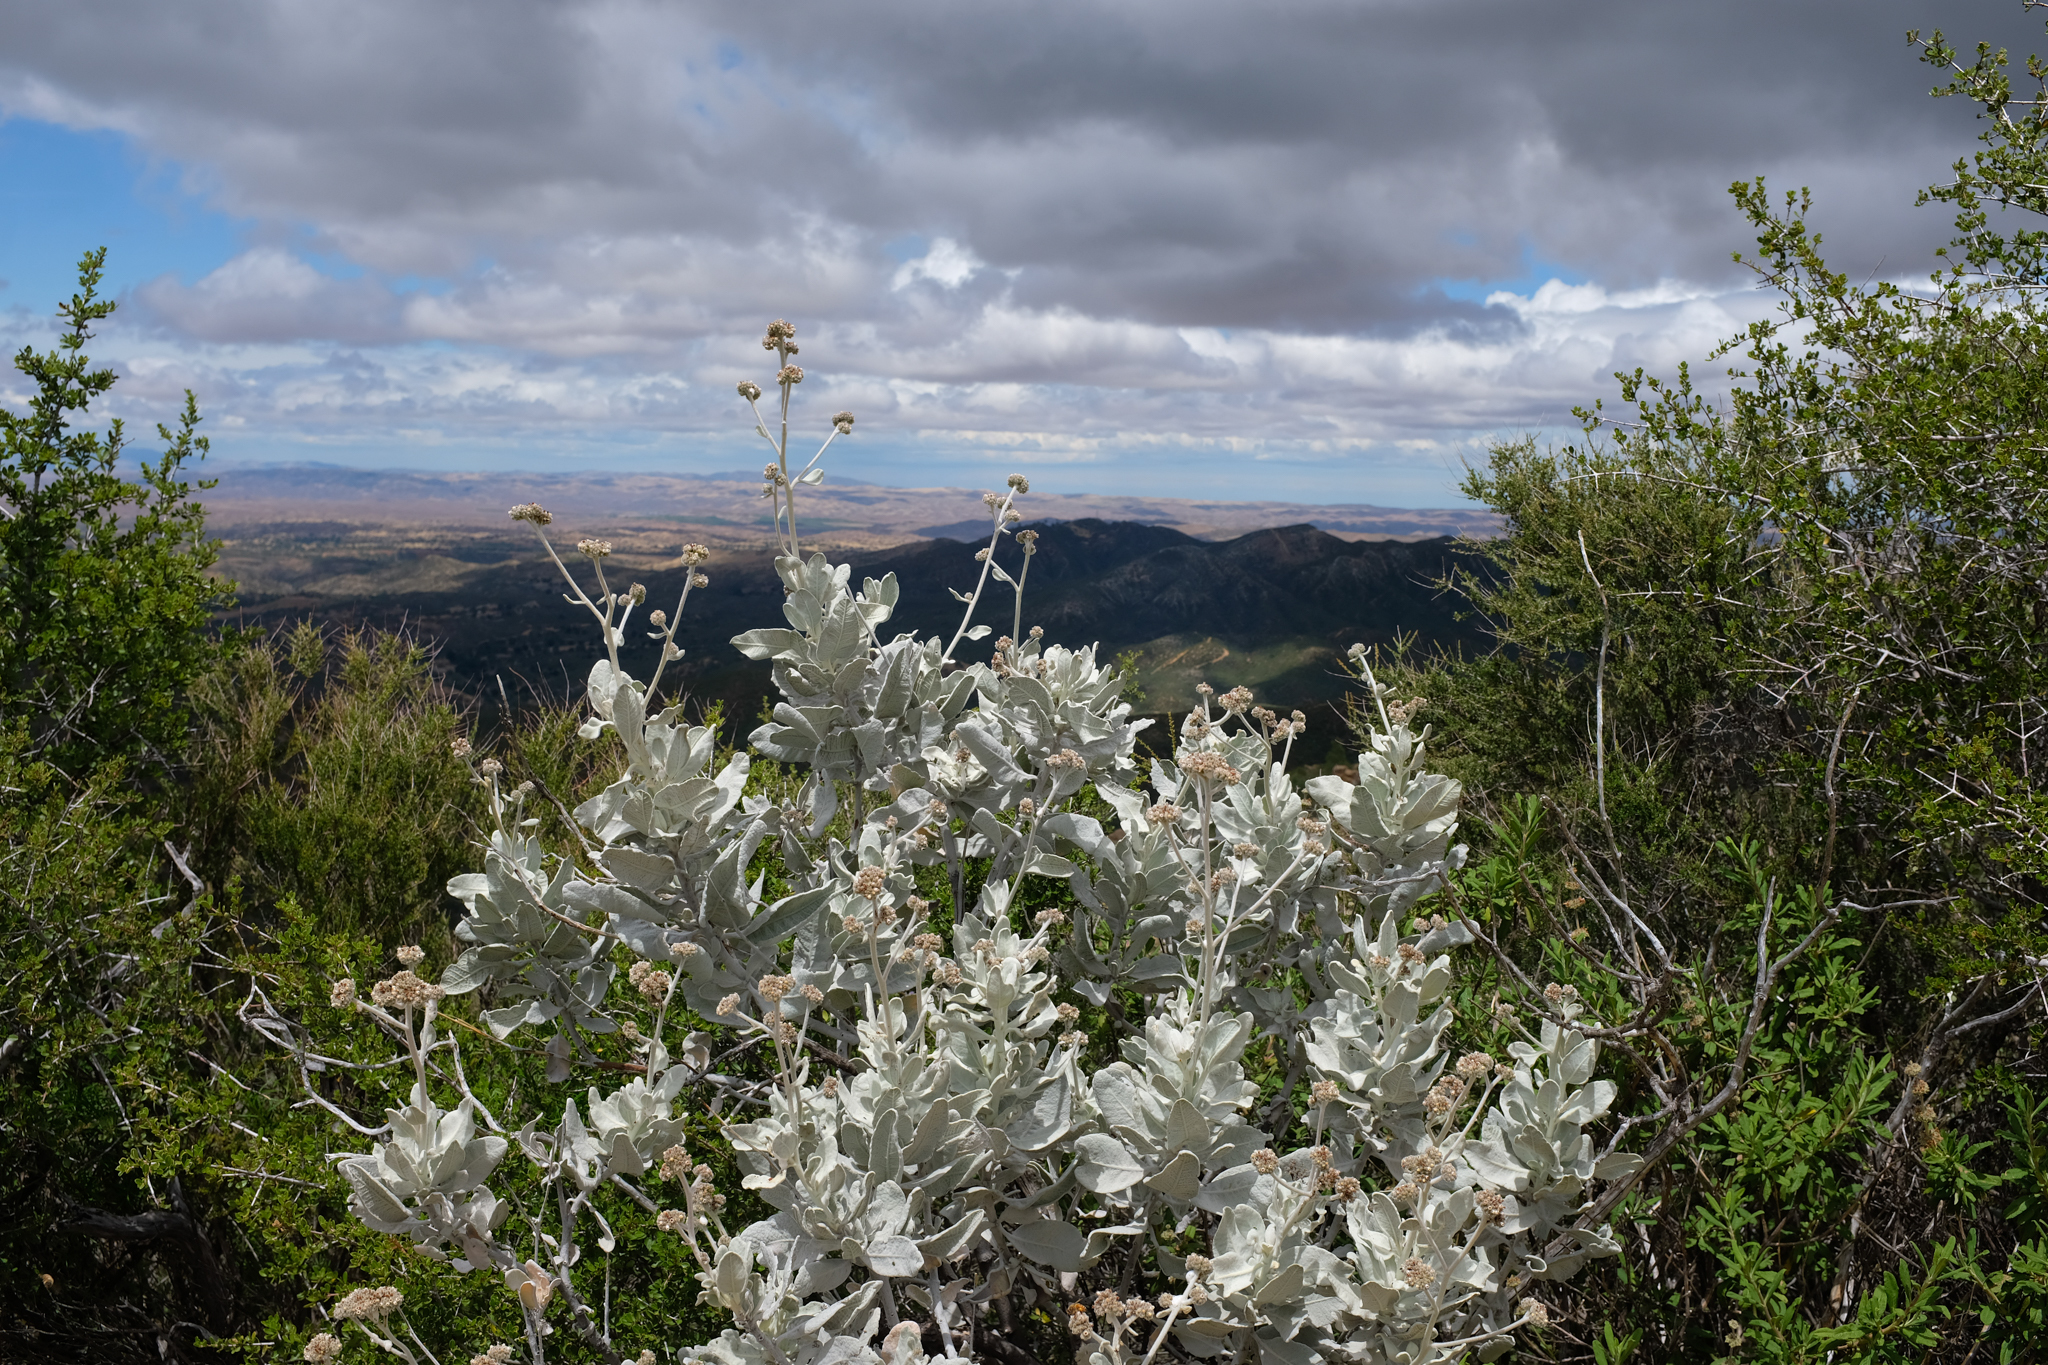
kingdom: Plantae
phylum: Tracheophyta
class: Magnoliopsida
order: Boraginales
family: Namaceae
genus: Eriodictyon
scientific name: Eriodictyon tomentosum
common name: Woolly yerba-santa
